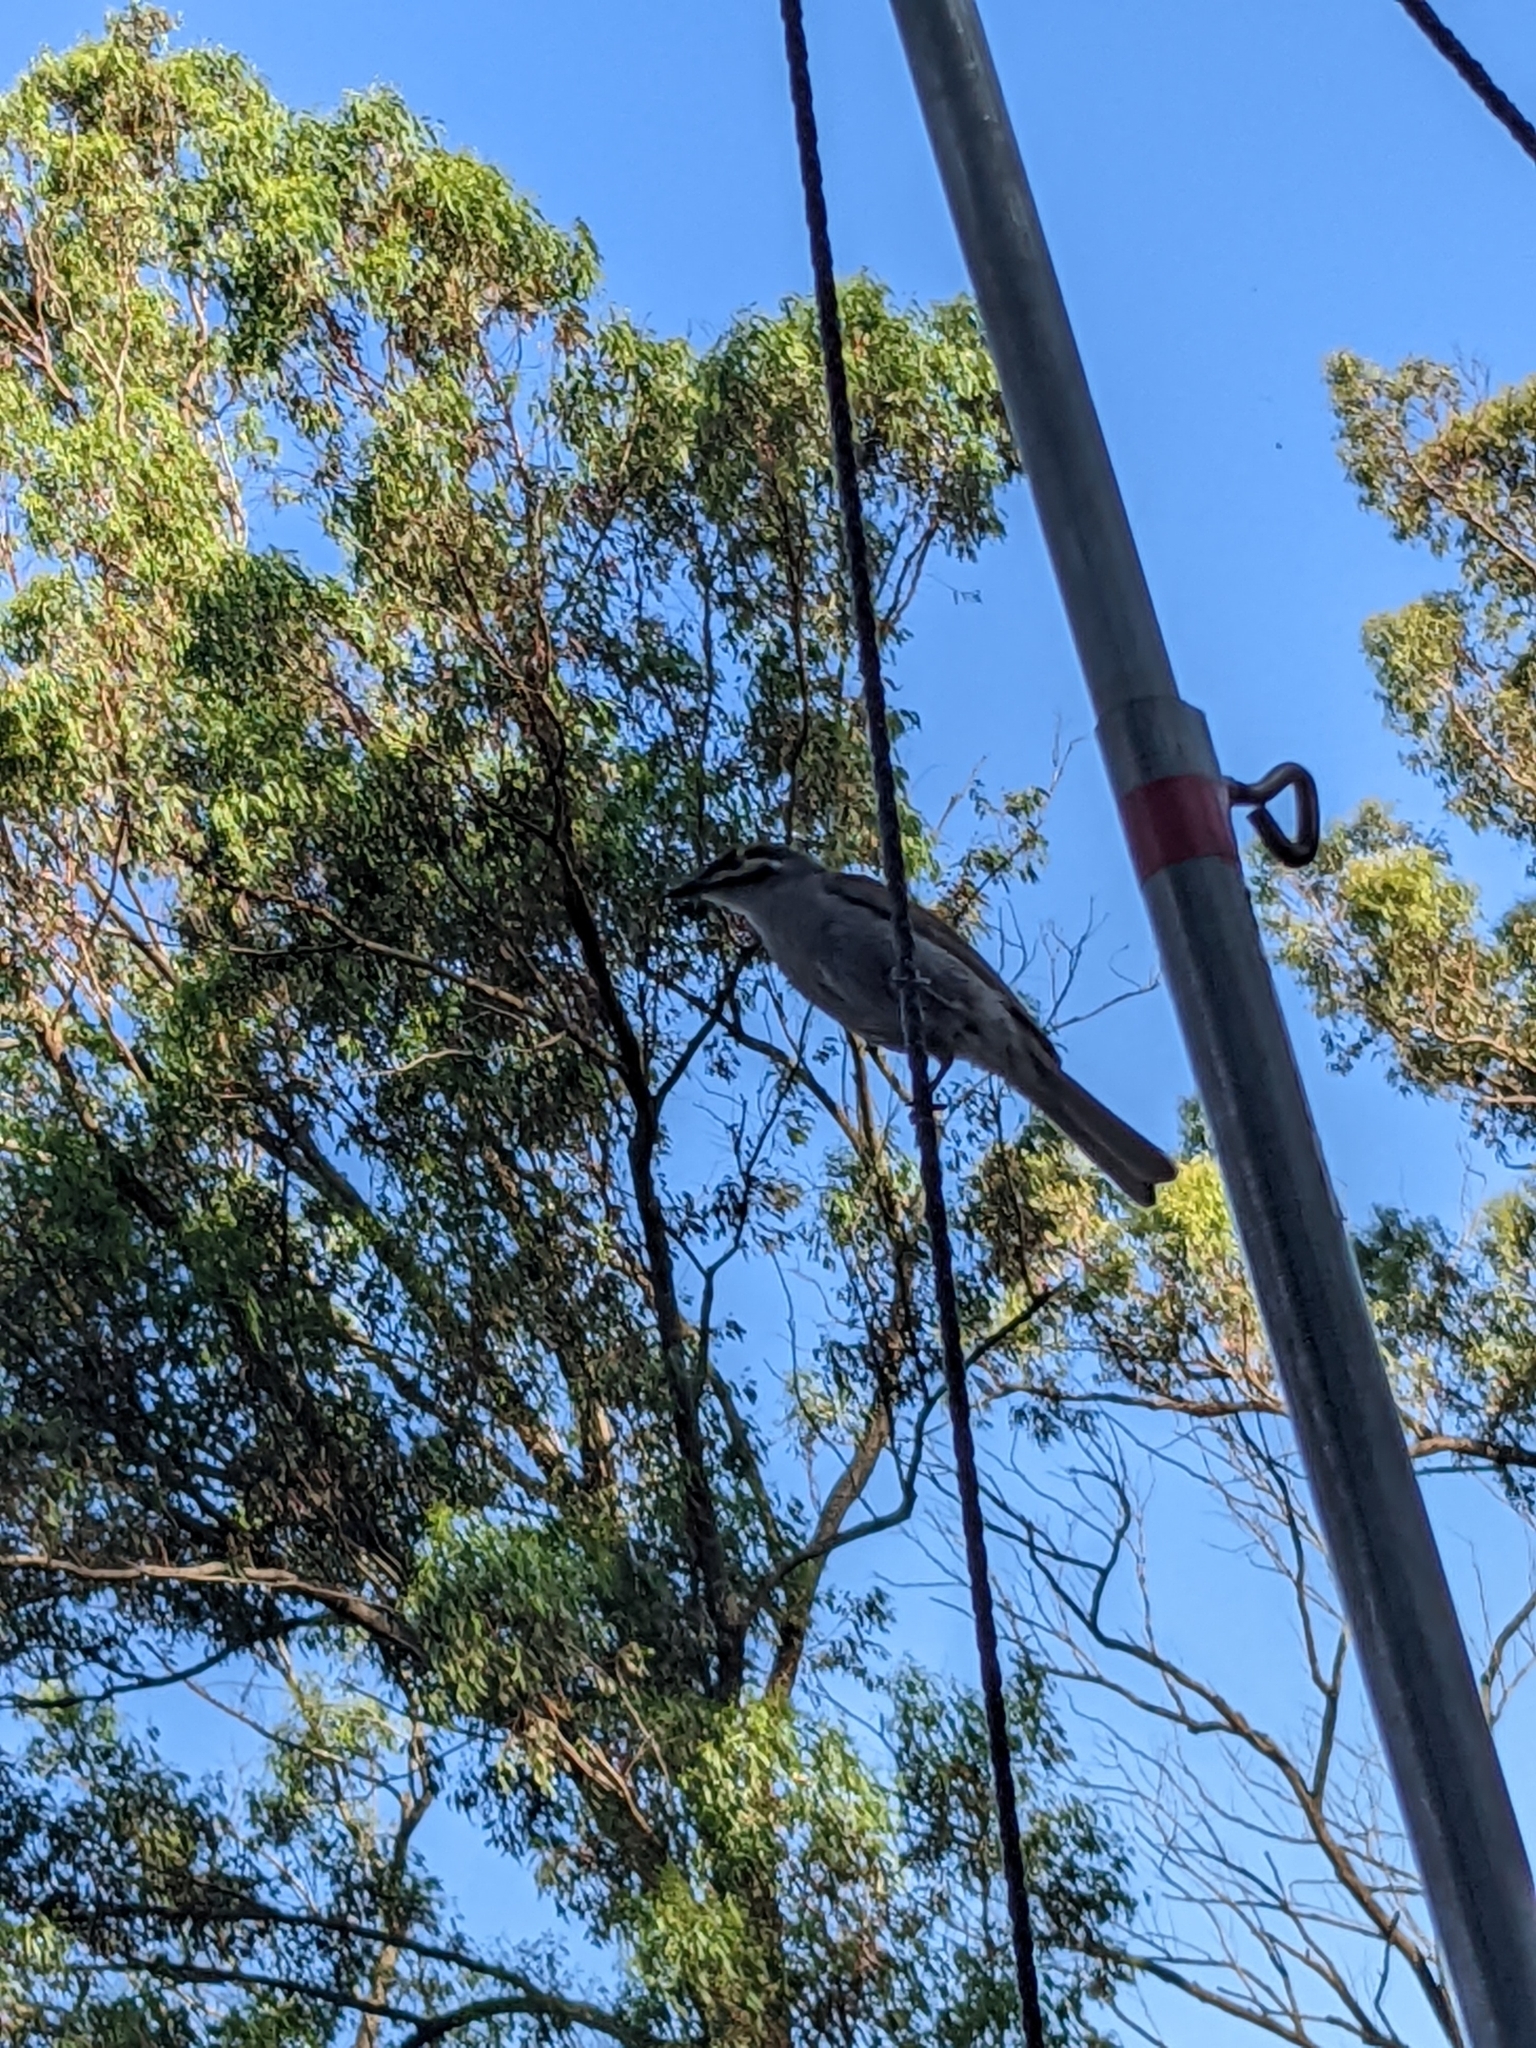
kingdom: Animalia
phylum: Chordata
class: Aves
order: Passeriformes
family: Meliphagidae
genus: Caligavis
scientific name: Caligavis chrysops
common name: Yellow-faced honeyeater
